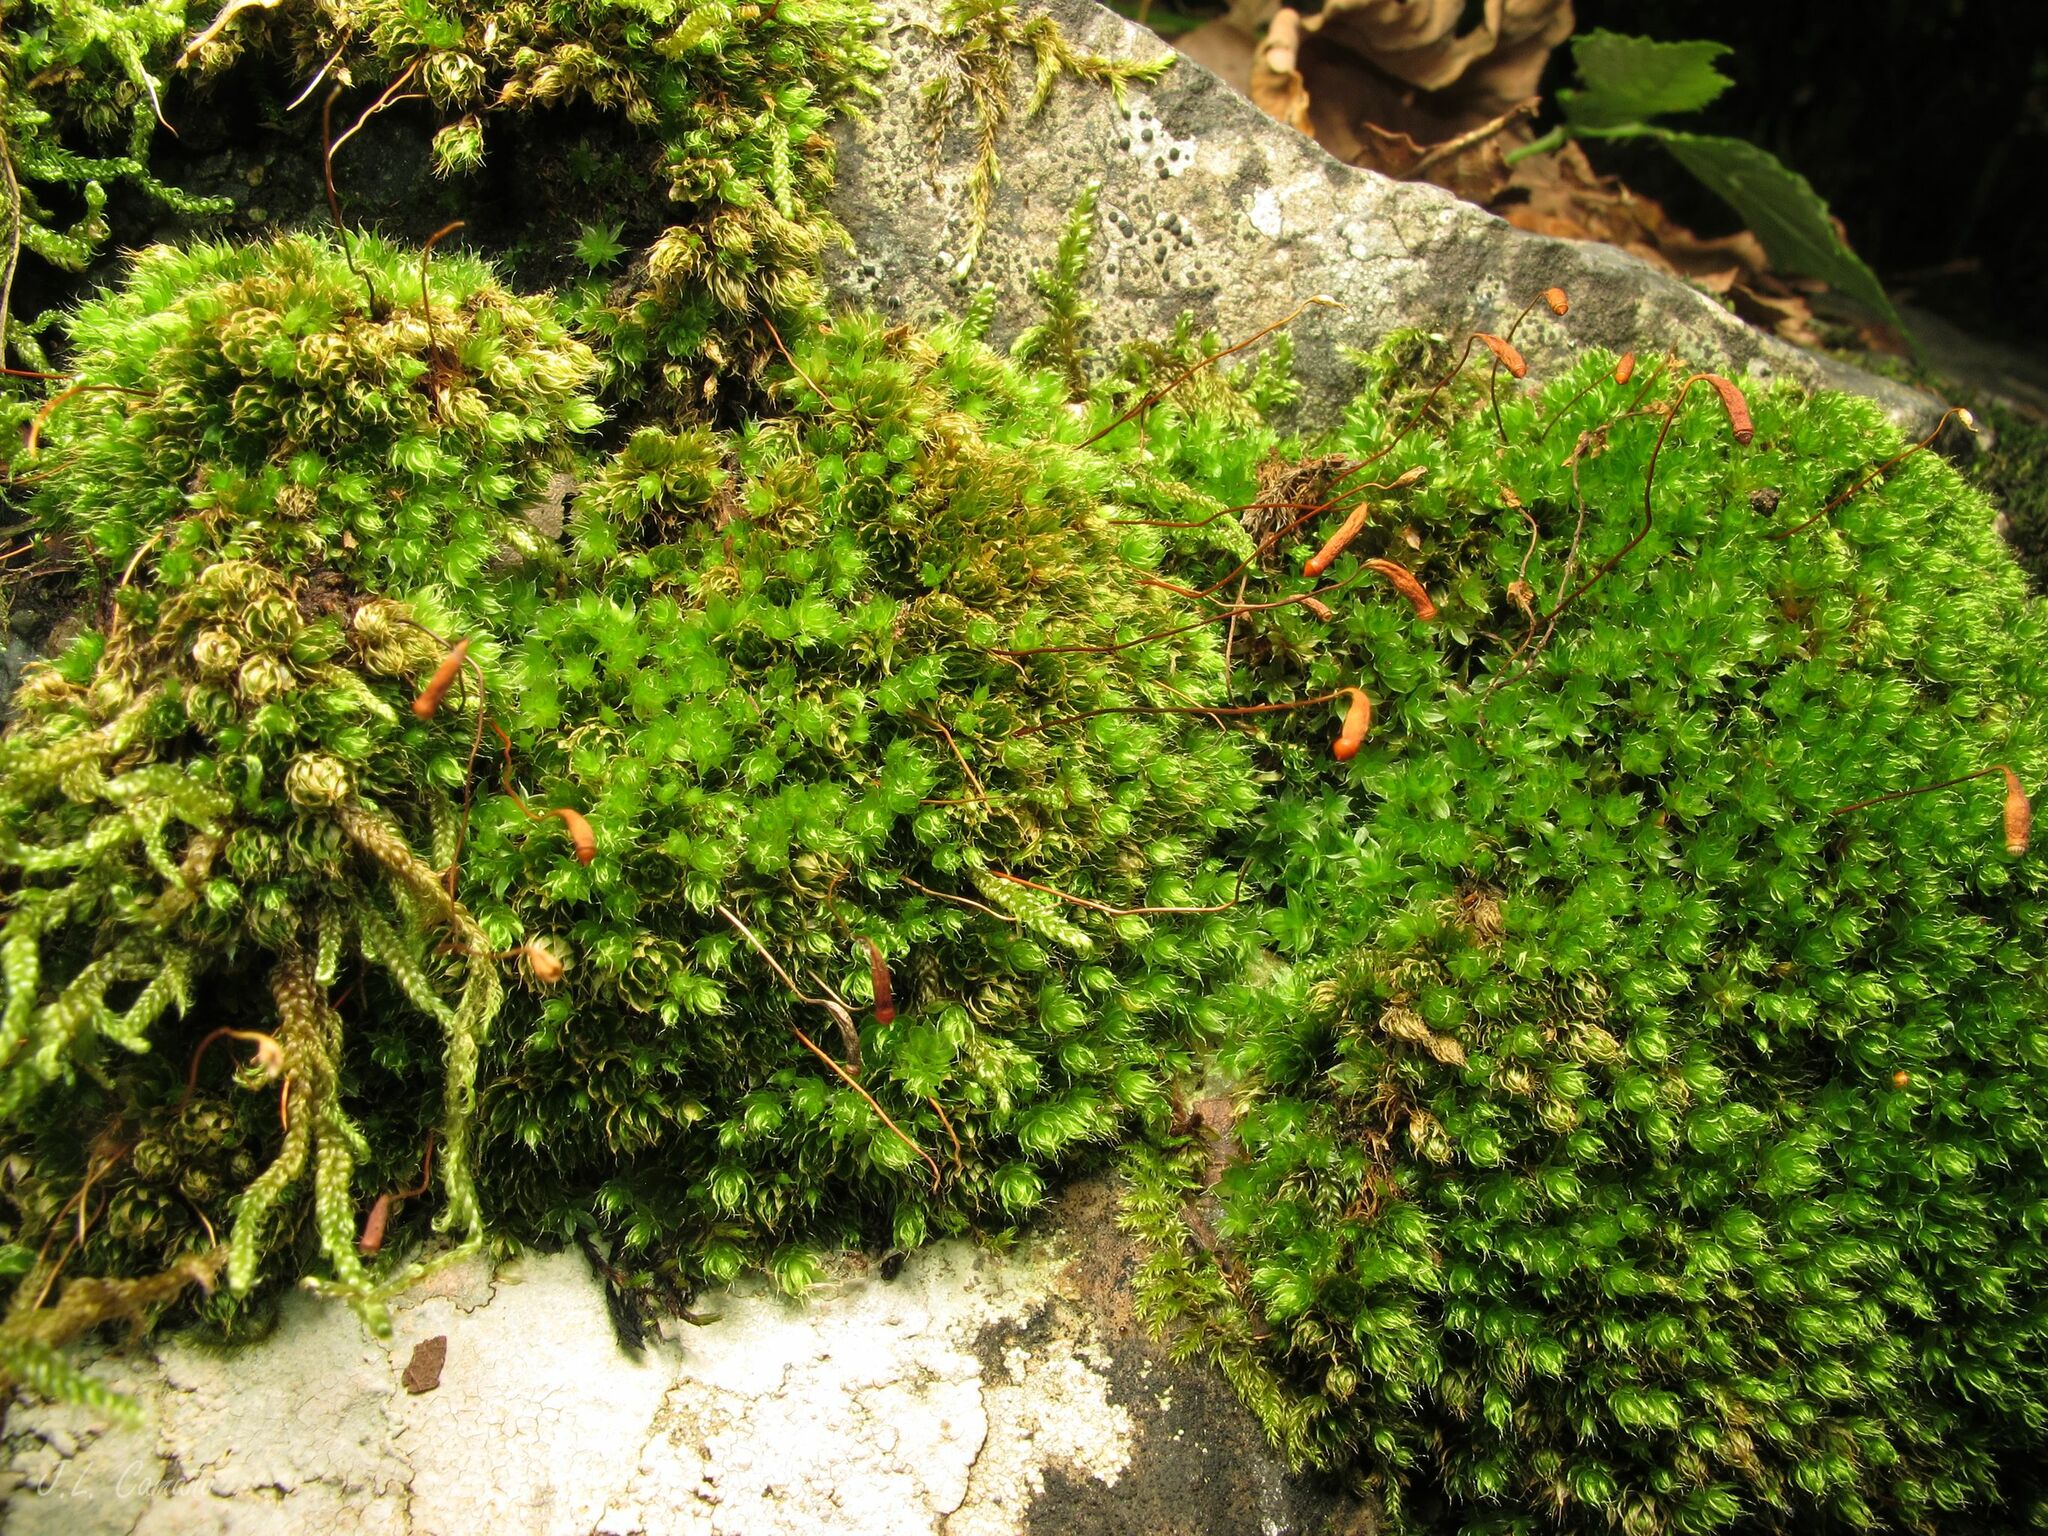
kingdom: Plantae
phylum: Bryophyta
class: Bryopsida
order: Bryales
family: Bryaceae
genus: Rosulabryum
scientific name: Rosulabryum capillare
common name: Capillary thread-moss
